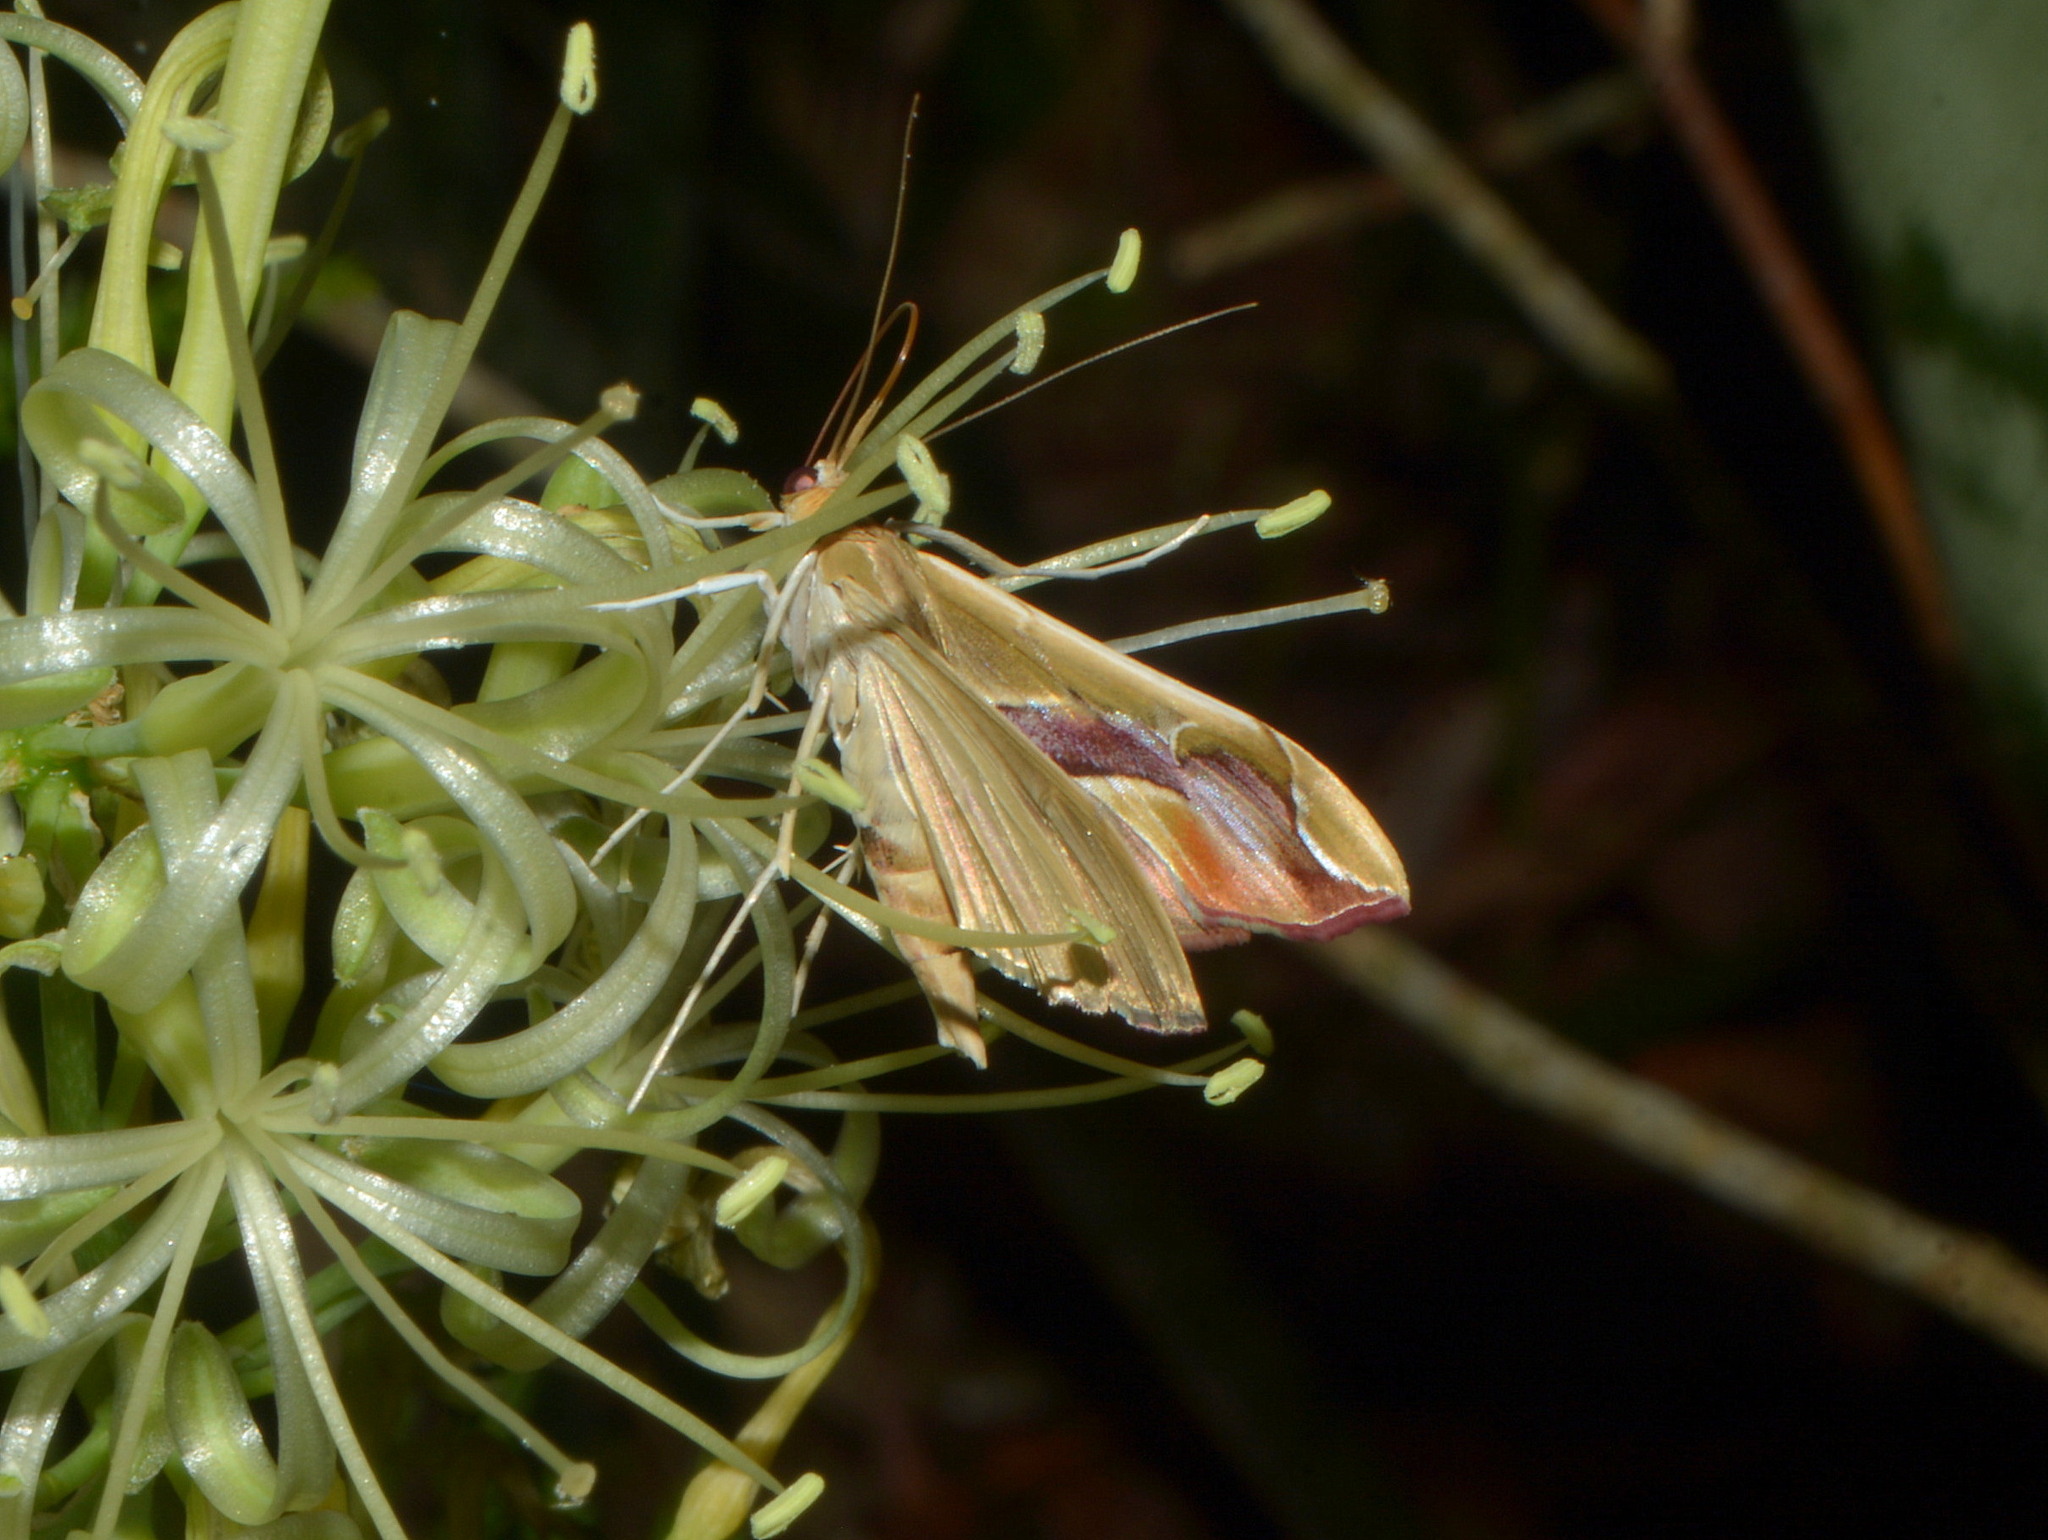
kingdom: Animalia
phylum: Arthropoda
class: Insecta
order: Lepidoptera
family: Crambidae
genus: Agathodes
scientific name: Agathodes designalis
